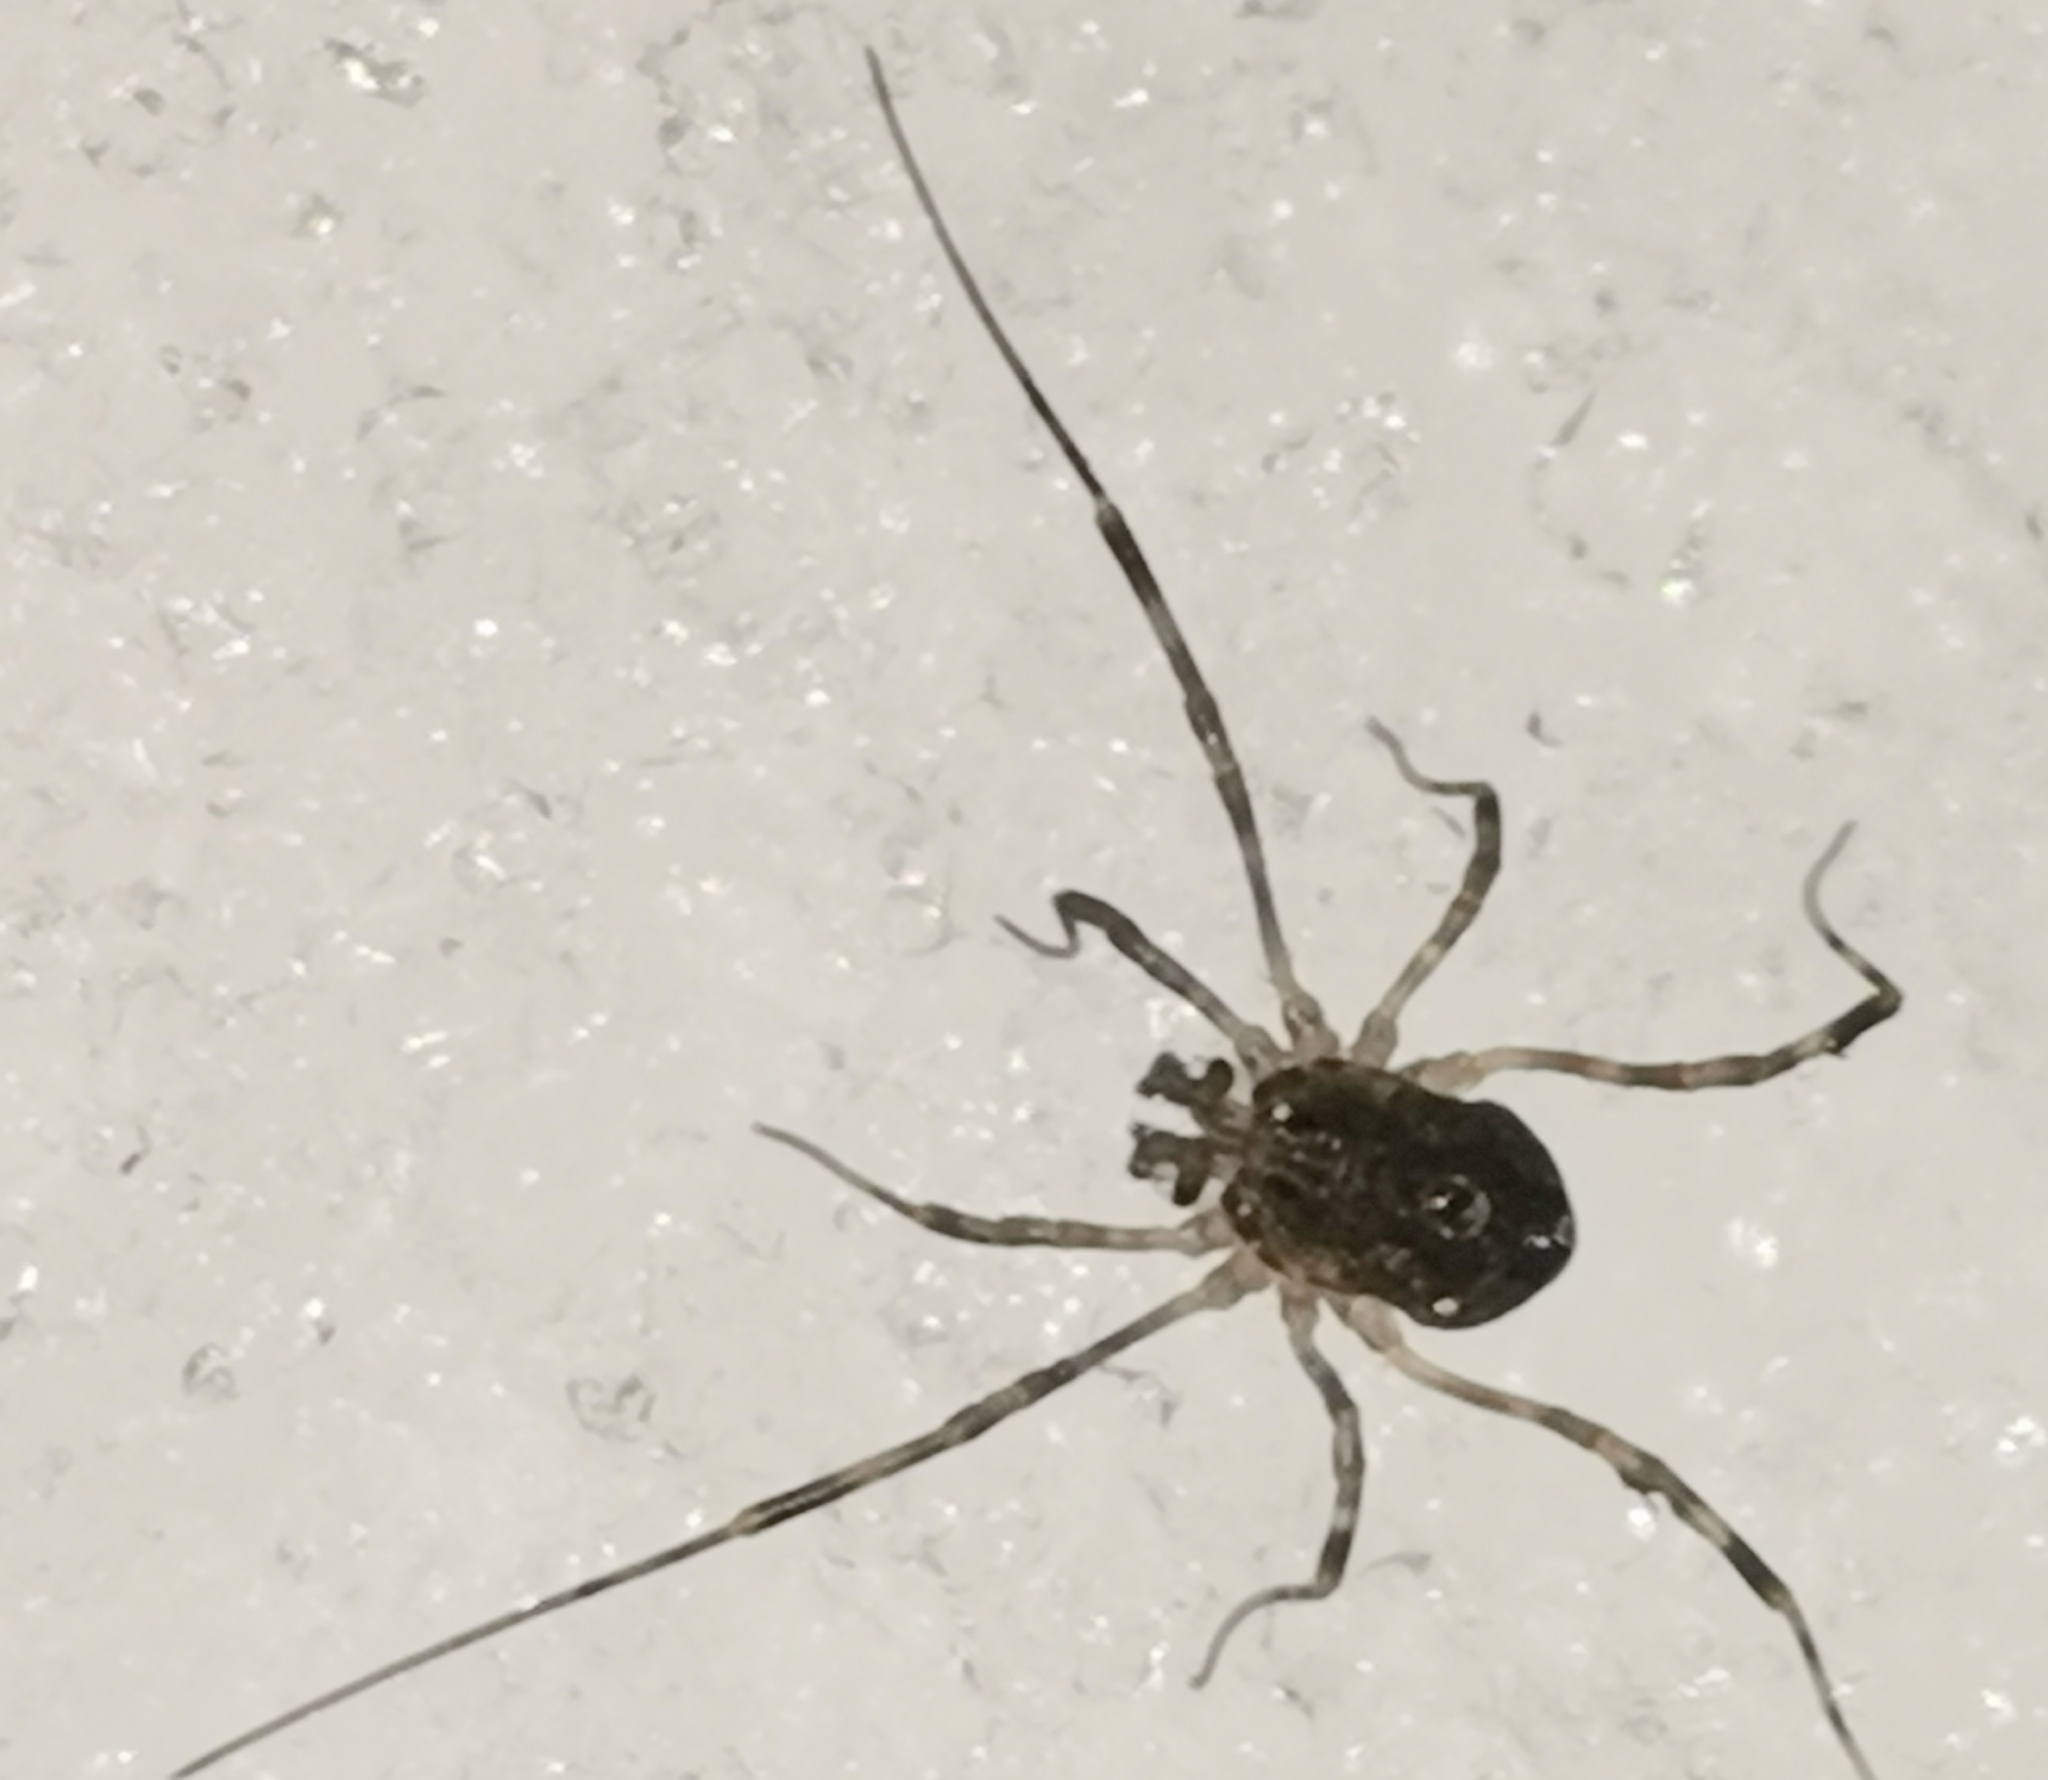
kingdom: Animalia
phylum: Arthropoda
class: Arachnida
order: Opiliones
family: Phalangiidae
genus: Rilaena
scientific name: Rilaena triangularis
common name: Spring harvestman
